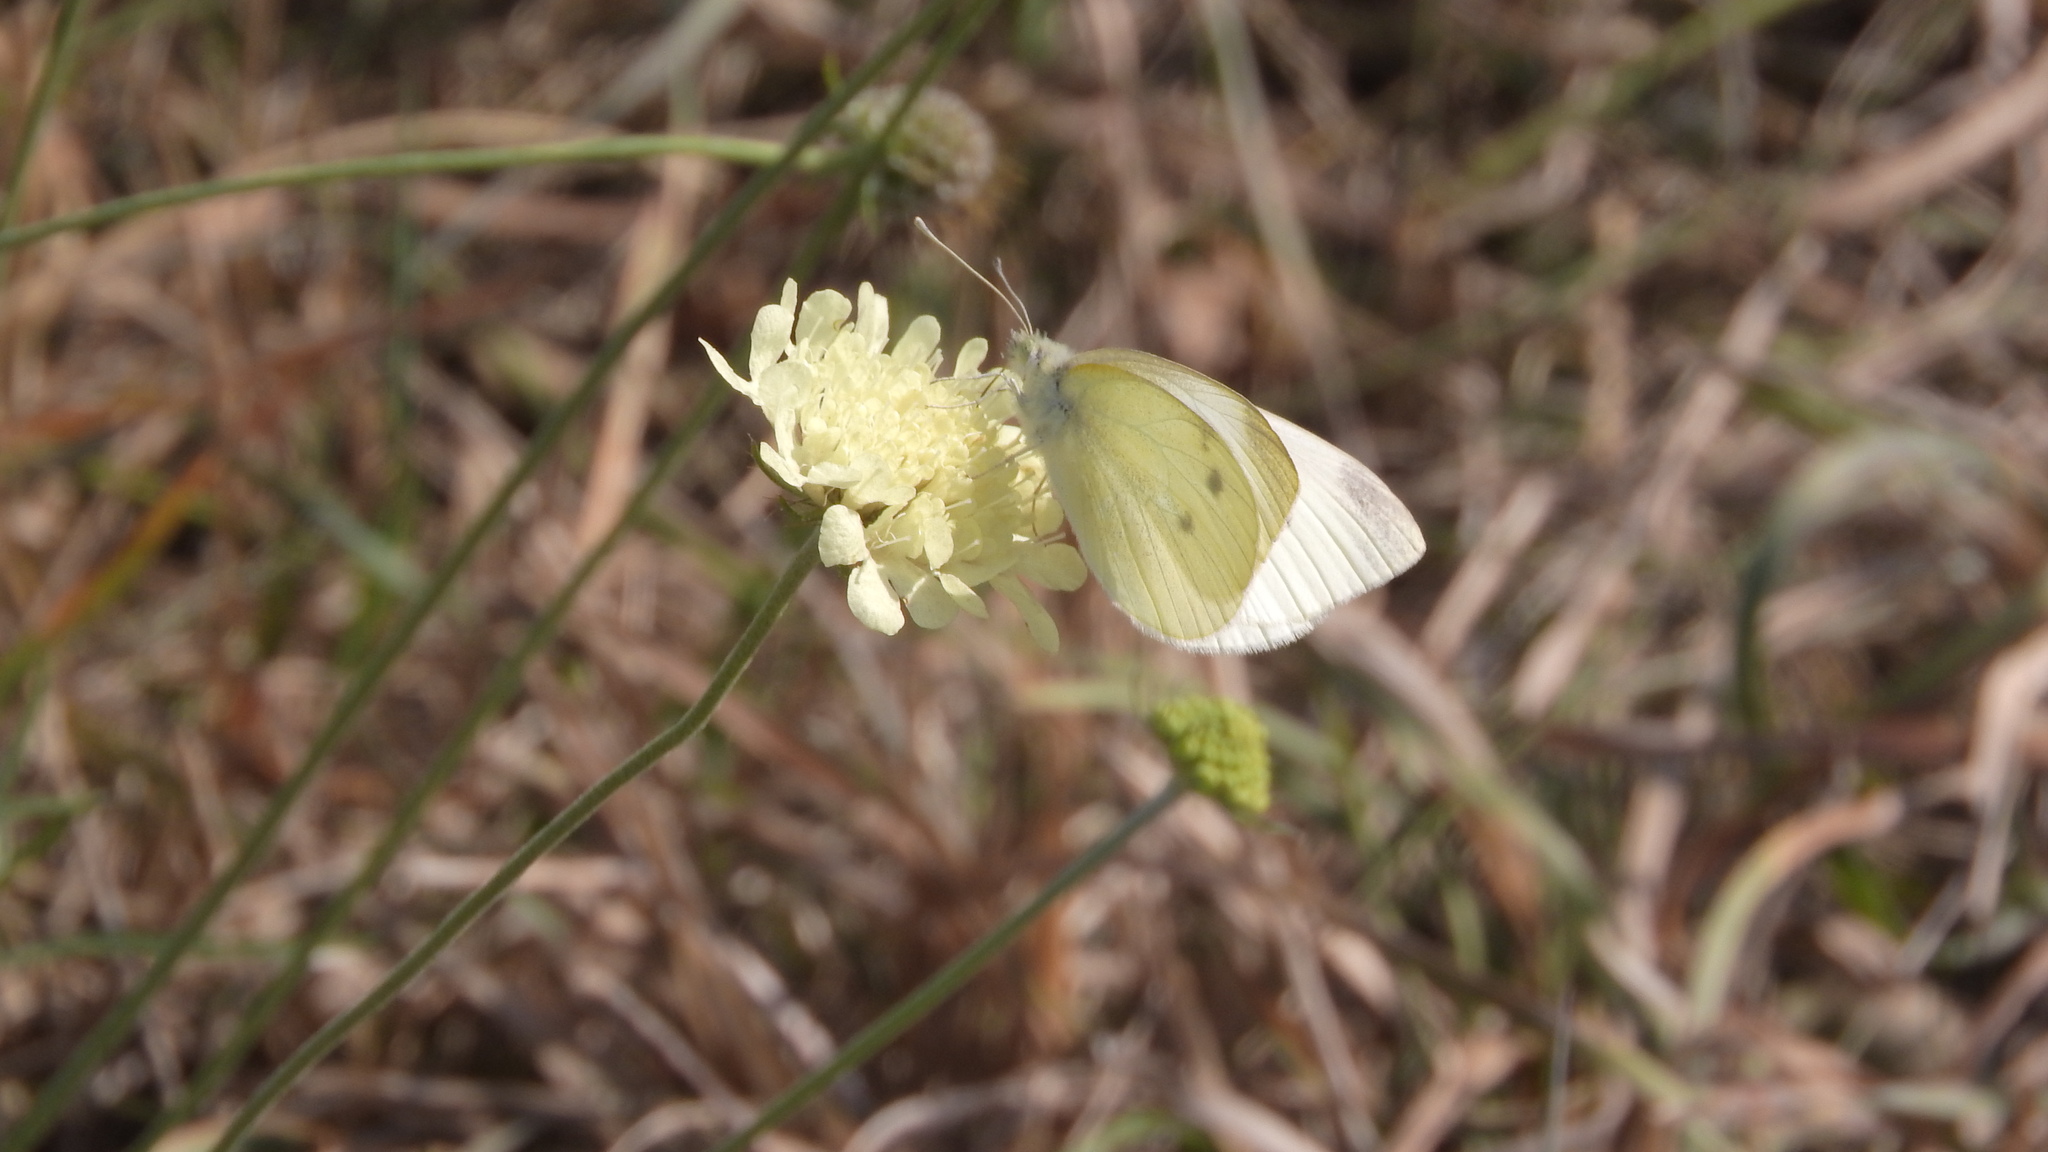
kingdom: Animalia
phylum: Arthropoda
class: Insecta
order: Lepidoptera
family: Pieridae
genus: Pieris
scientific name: Pieris rapae
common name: Small white
